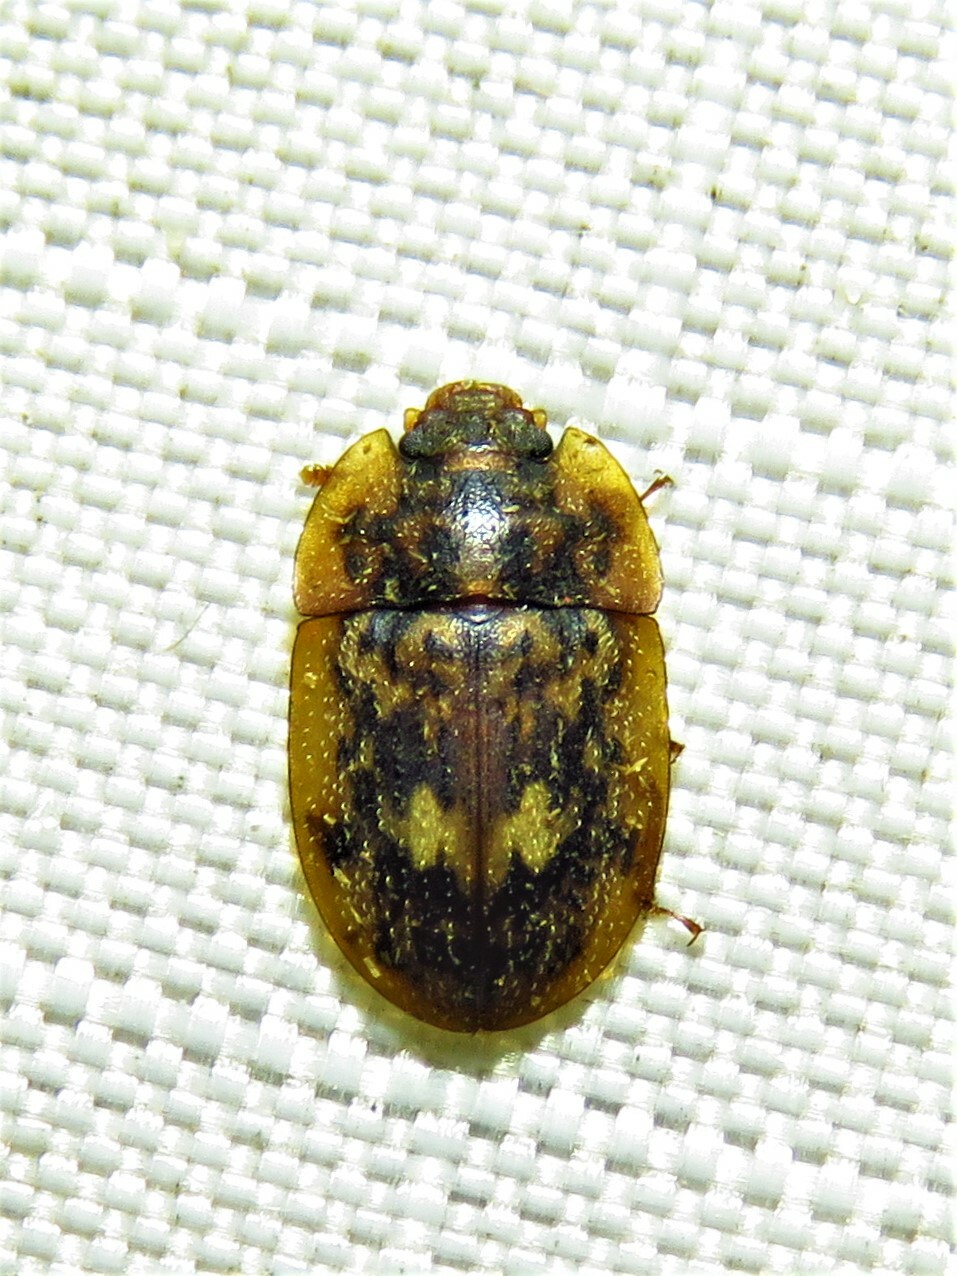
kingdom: Animalia
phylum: Arthropoda
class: Insecta
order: Coleoptera
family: Nitidulidae
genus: Lobiopa
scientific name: Lobiopa undulata
